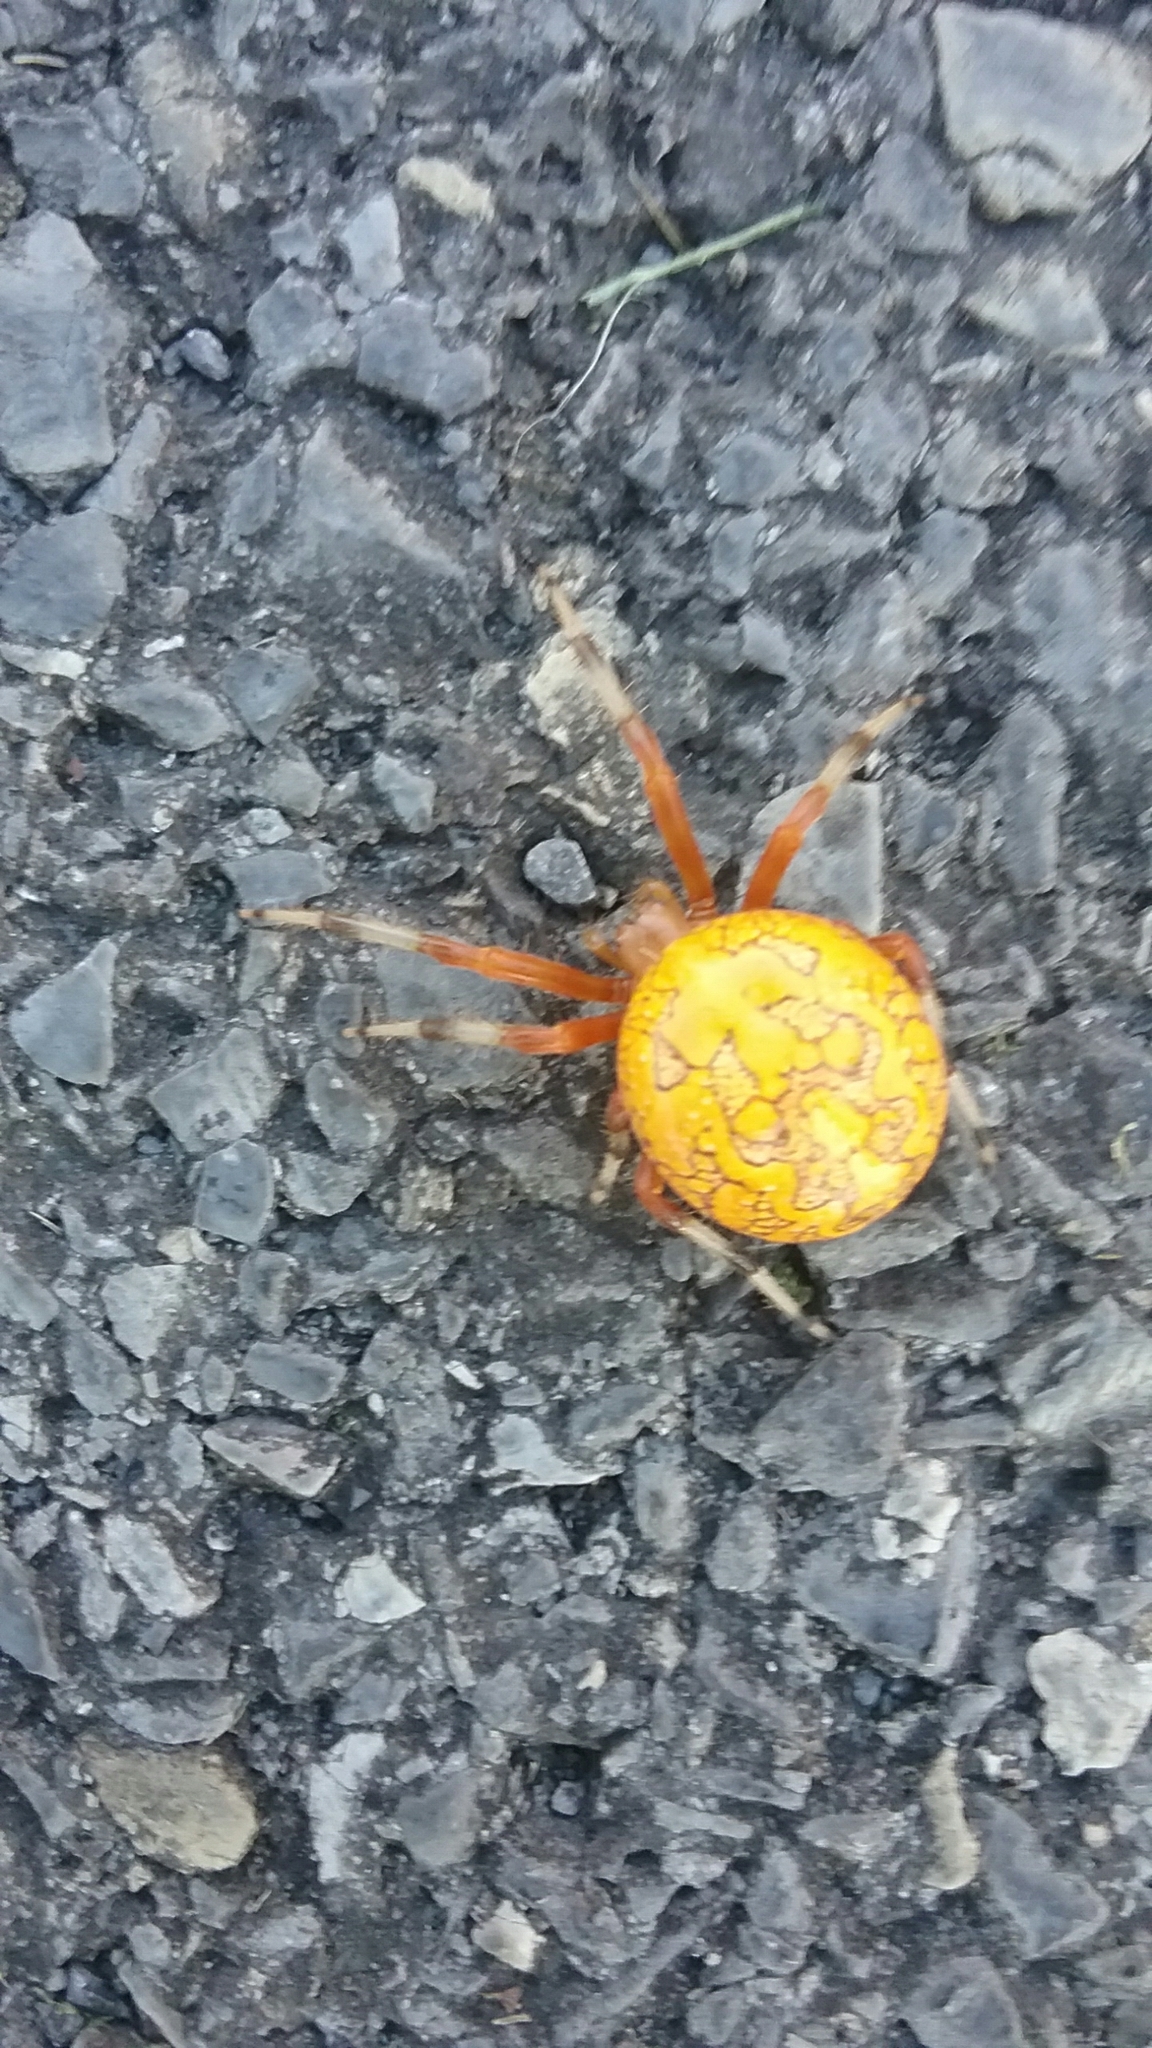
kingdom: Animalia
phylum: Arthropoda
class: Arachnida
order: Araneae
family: Araneidae
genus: Araneus
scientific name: Araneus marmoreus
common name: Marbled orbweaver
